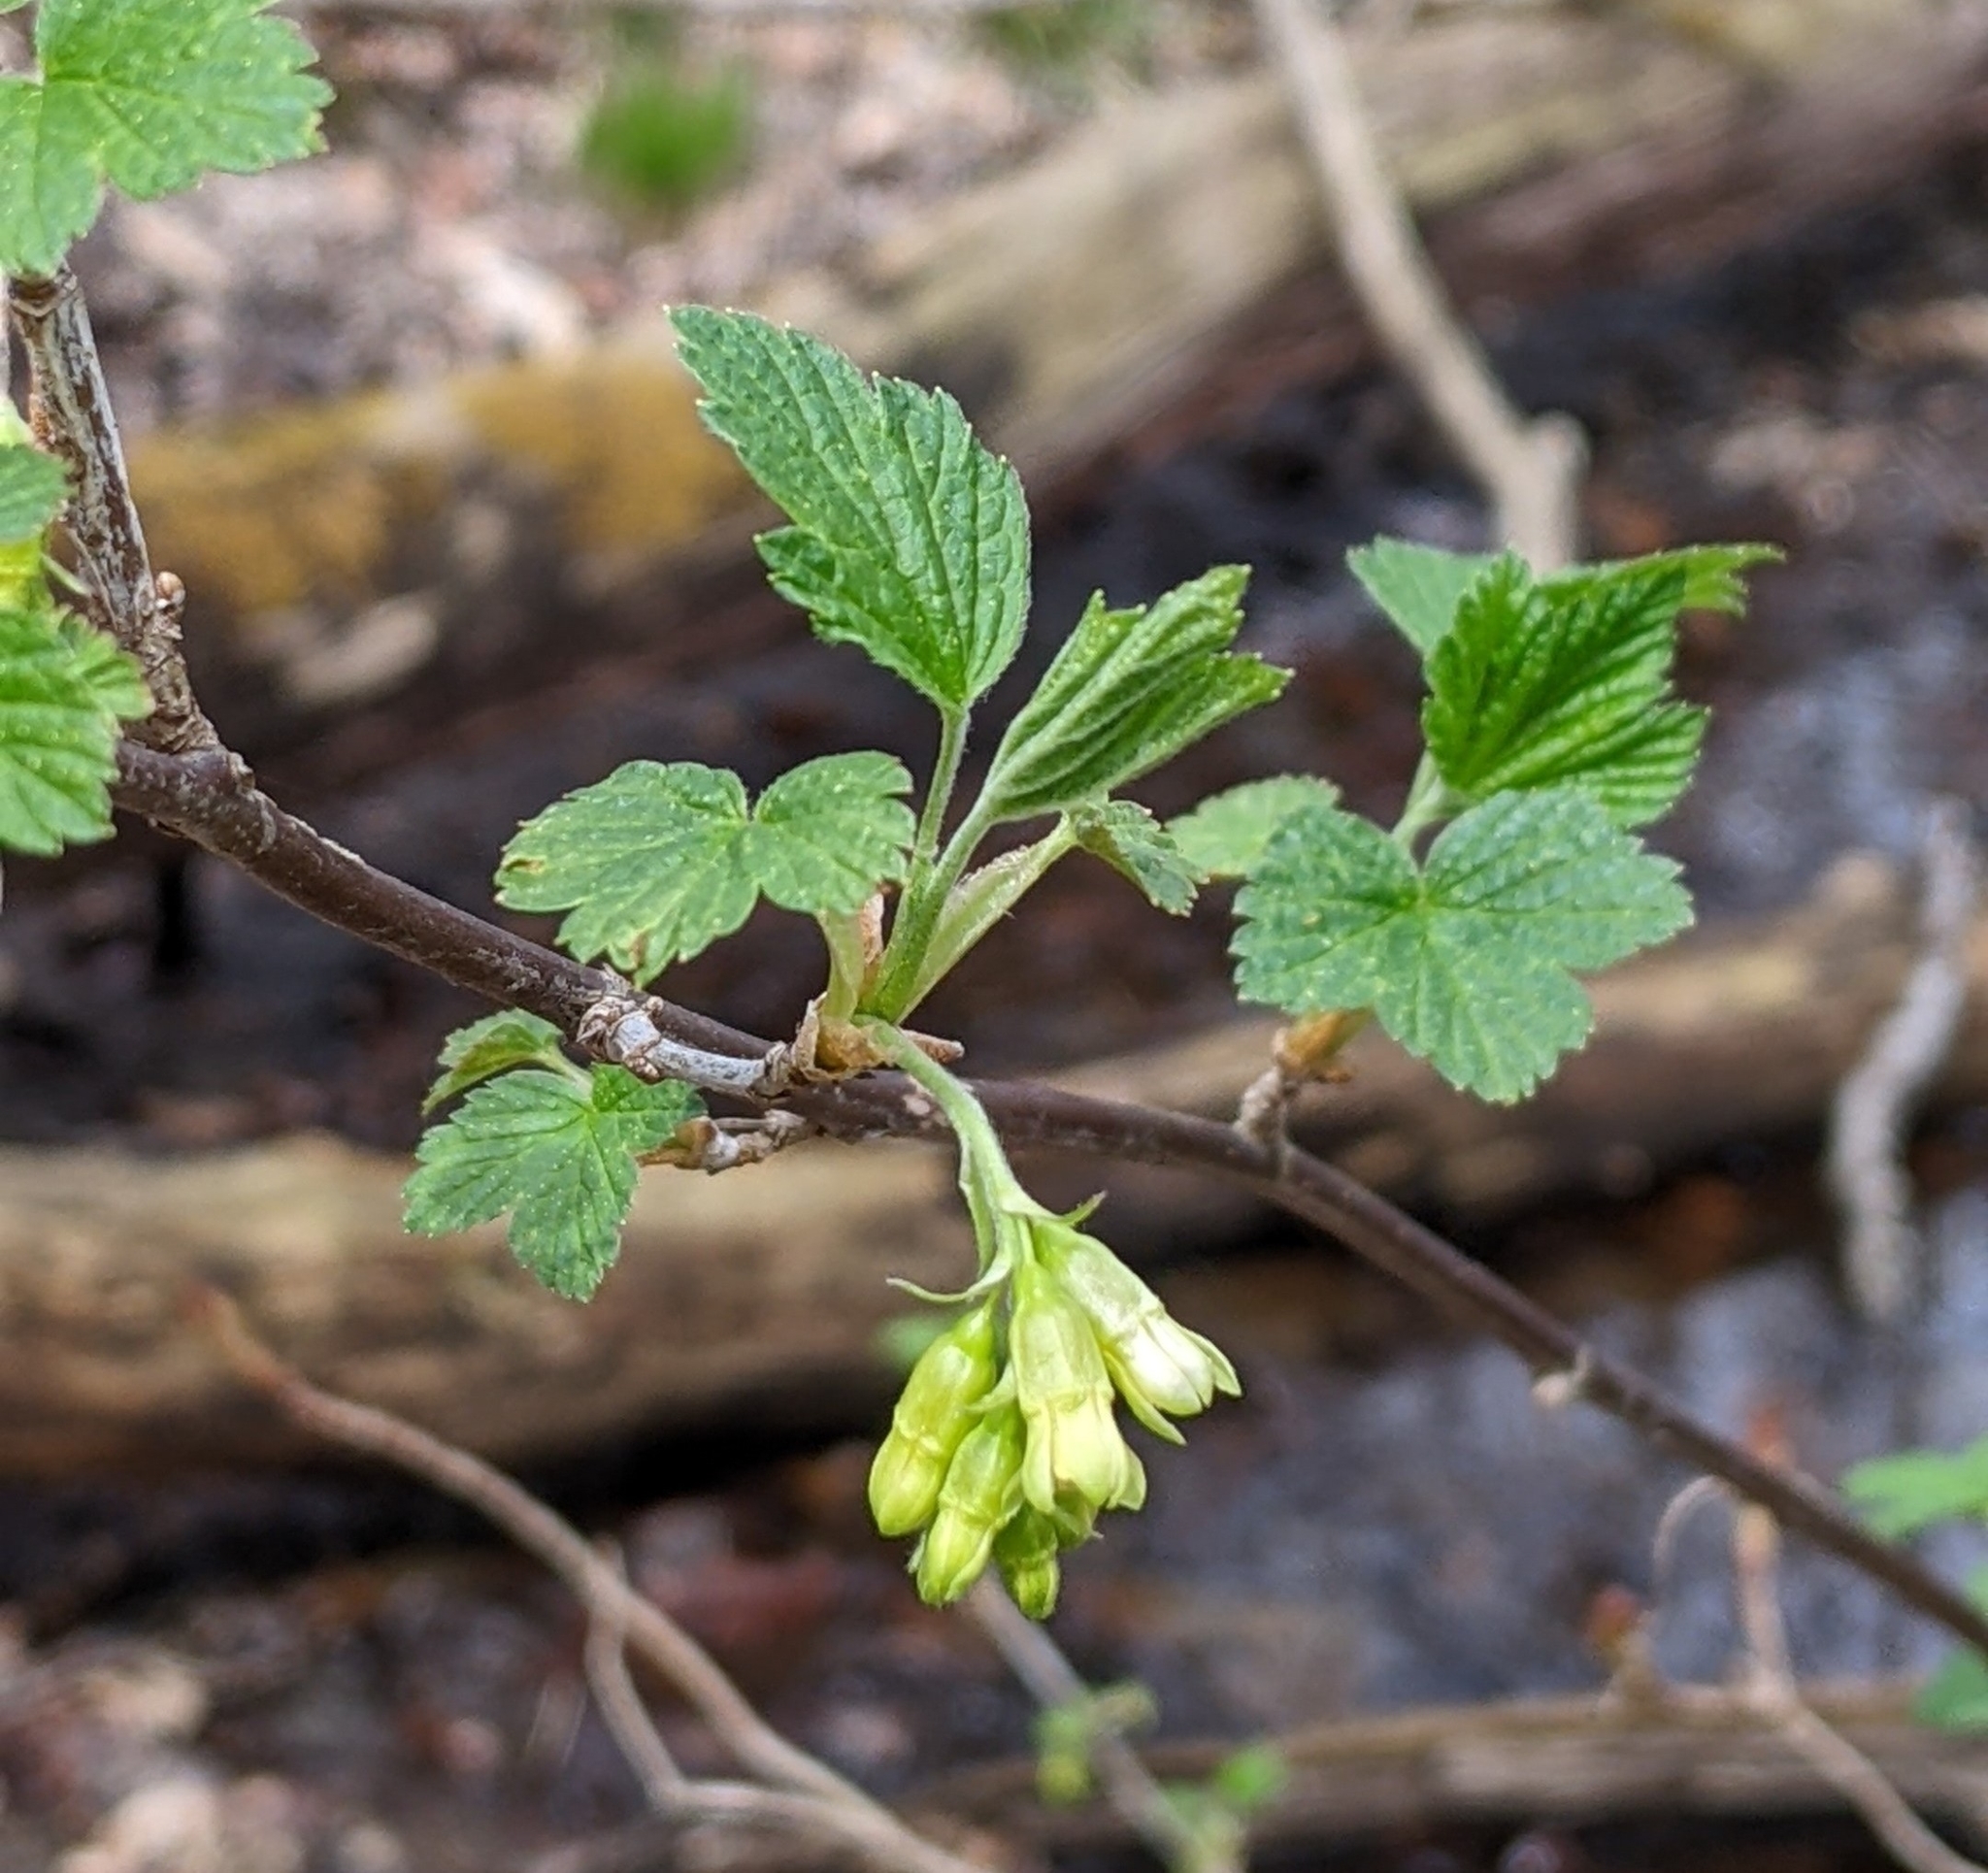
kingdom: Plantae
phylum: Tracheophyta
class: Magnoliopsida
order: Saxifragales
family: Grossulariaceae
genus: Ribes
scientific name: Ribes americanum
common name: American black currant
